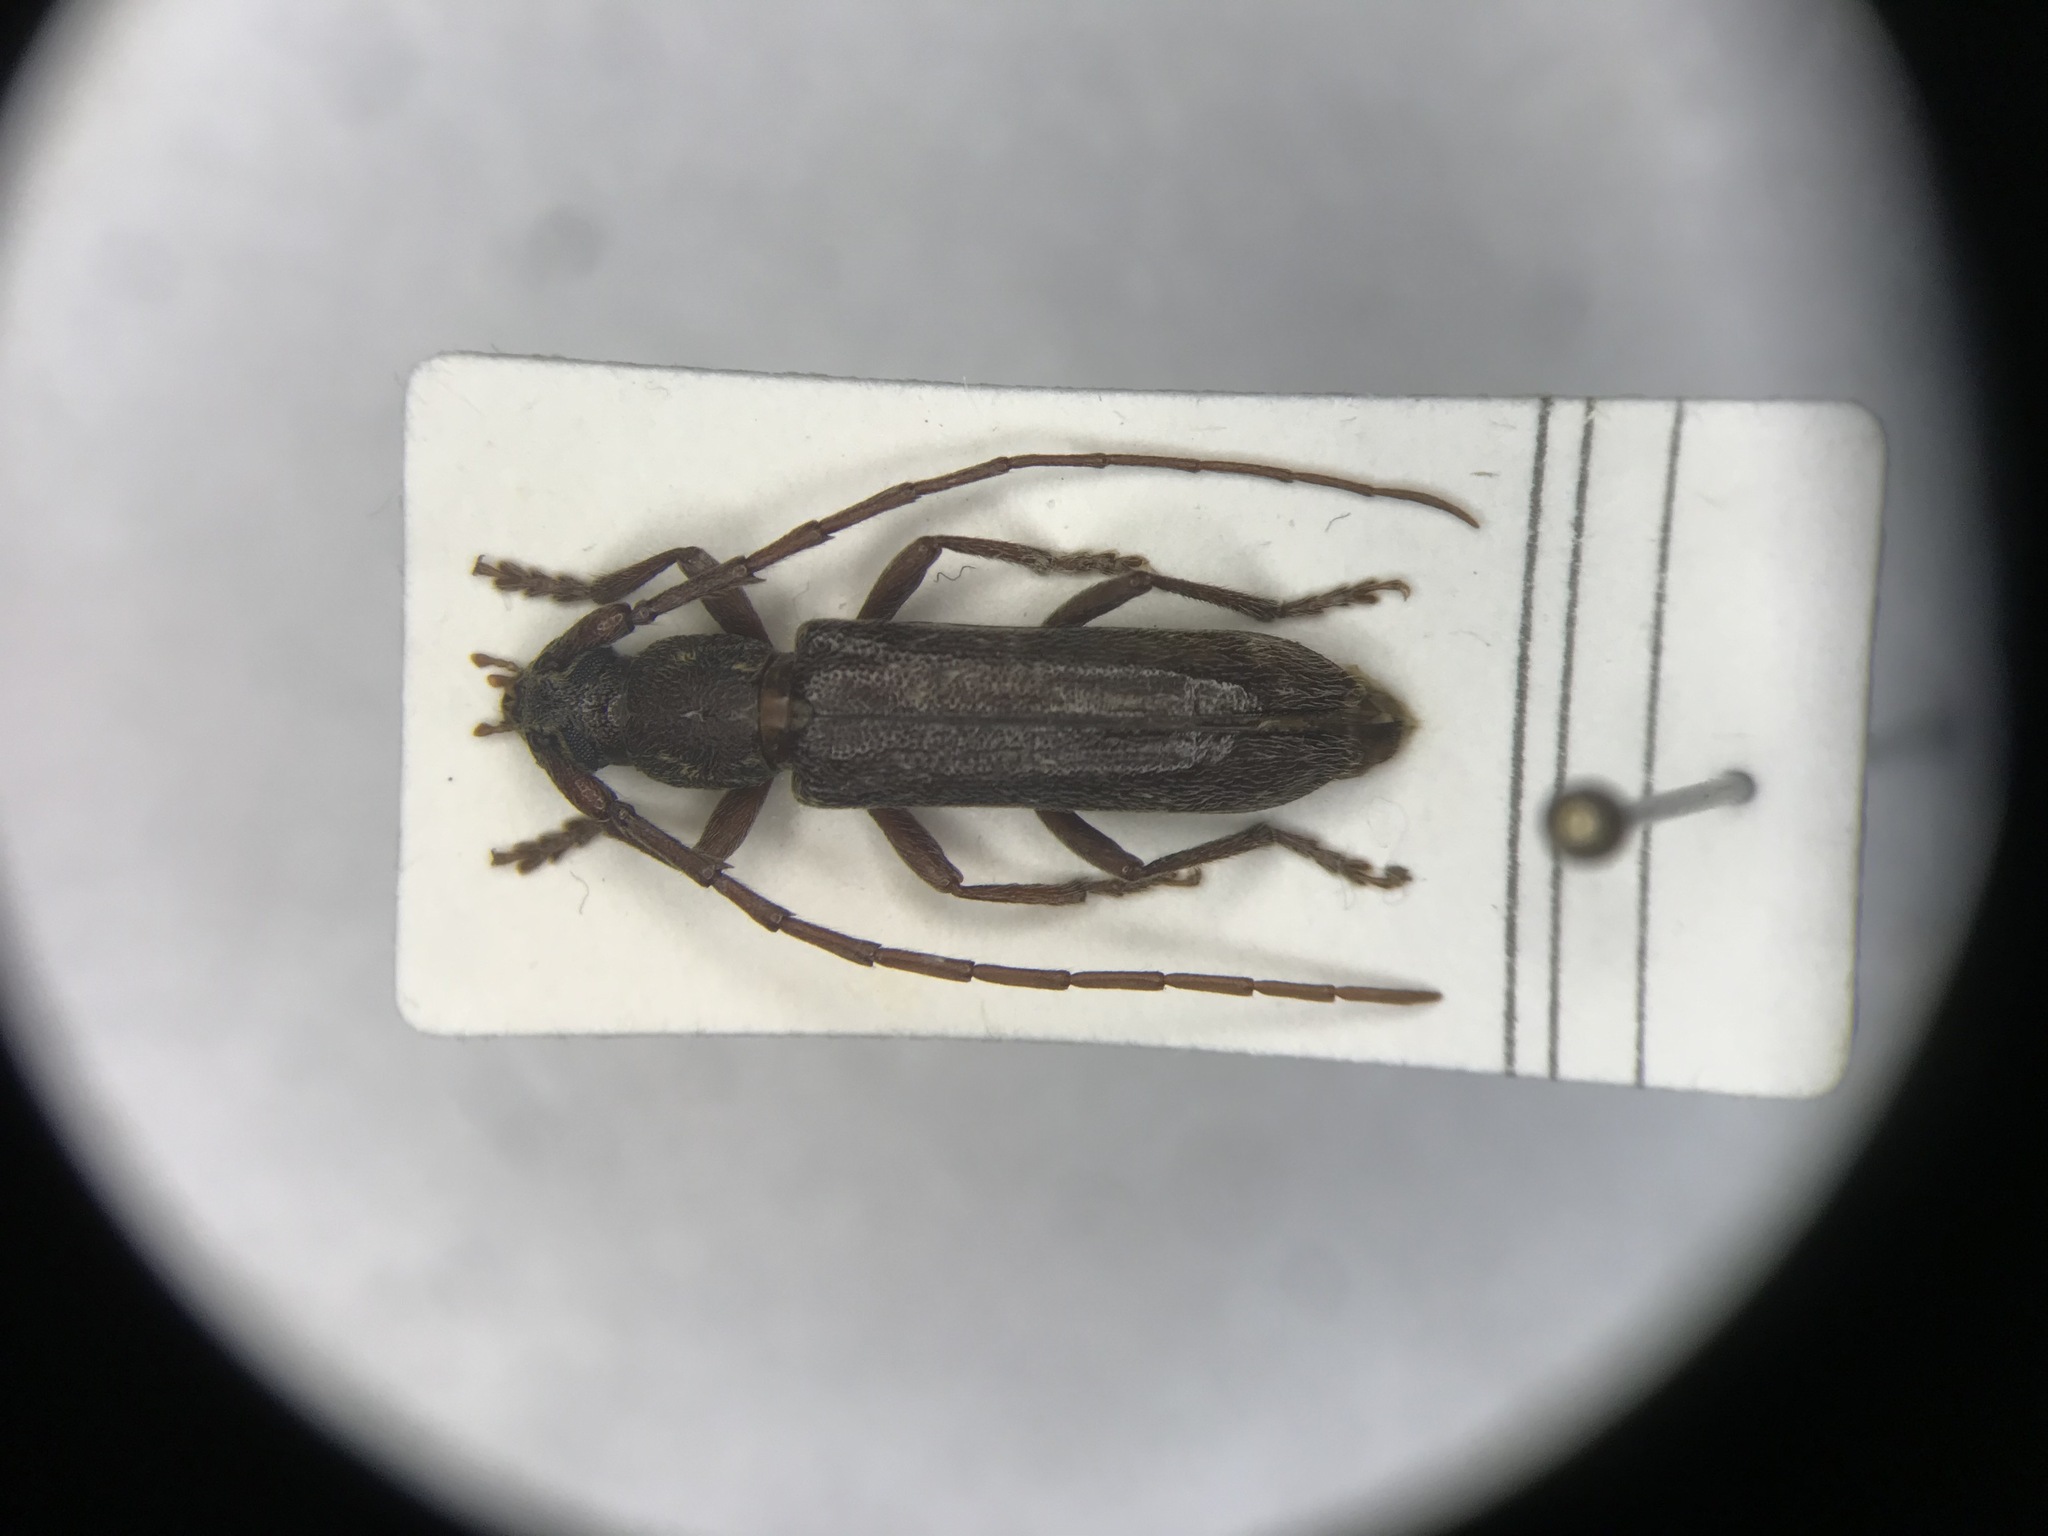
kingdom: Animalia
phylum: Arthropoda
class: Insecta
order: Coleoptera
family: Cerambycidae
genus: Anelaphus
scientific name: Anelaphus villosus
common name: Twig pruner
